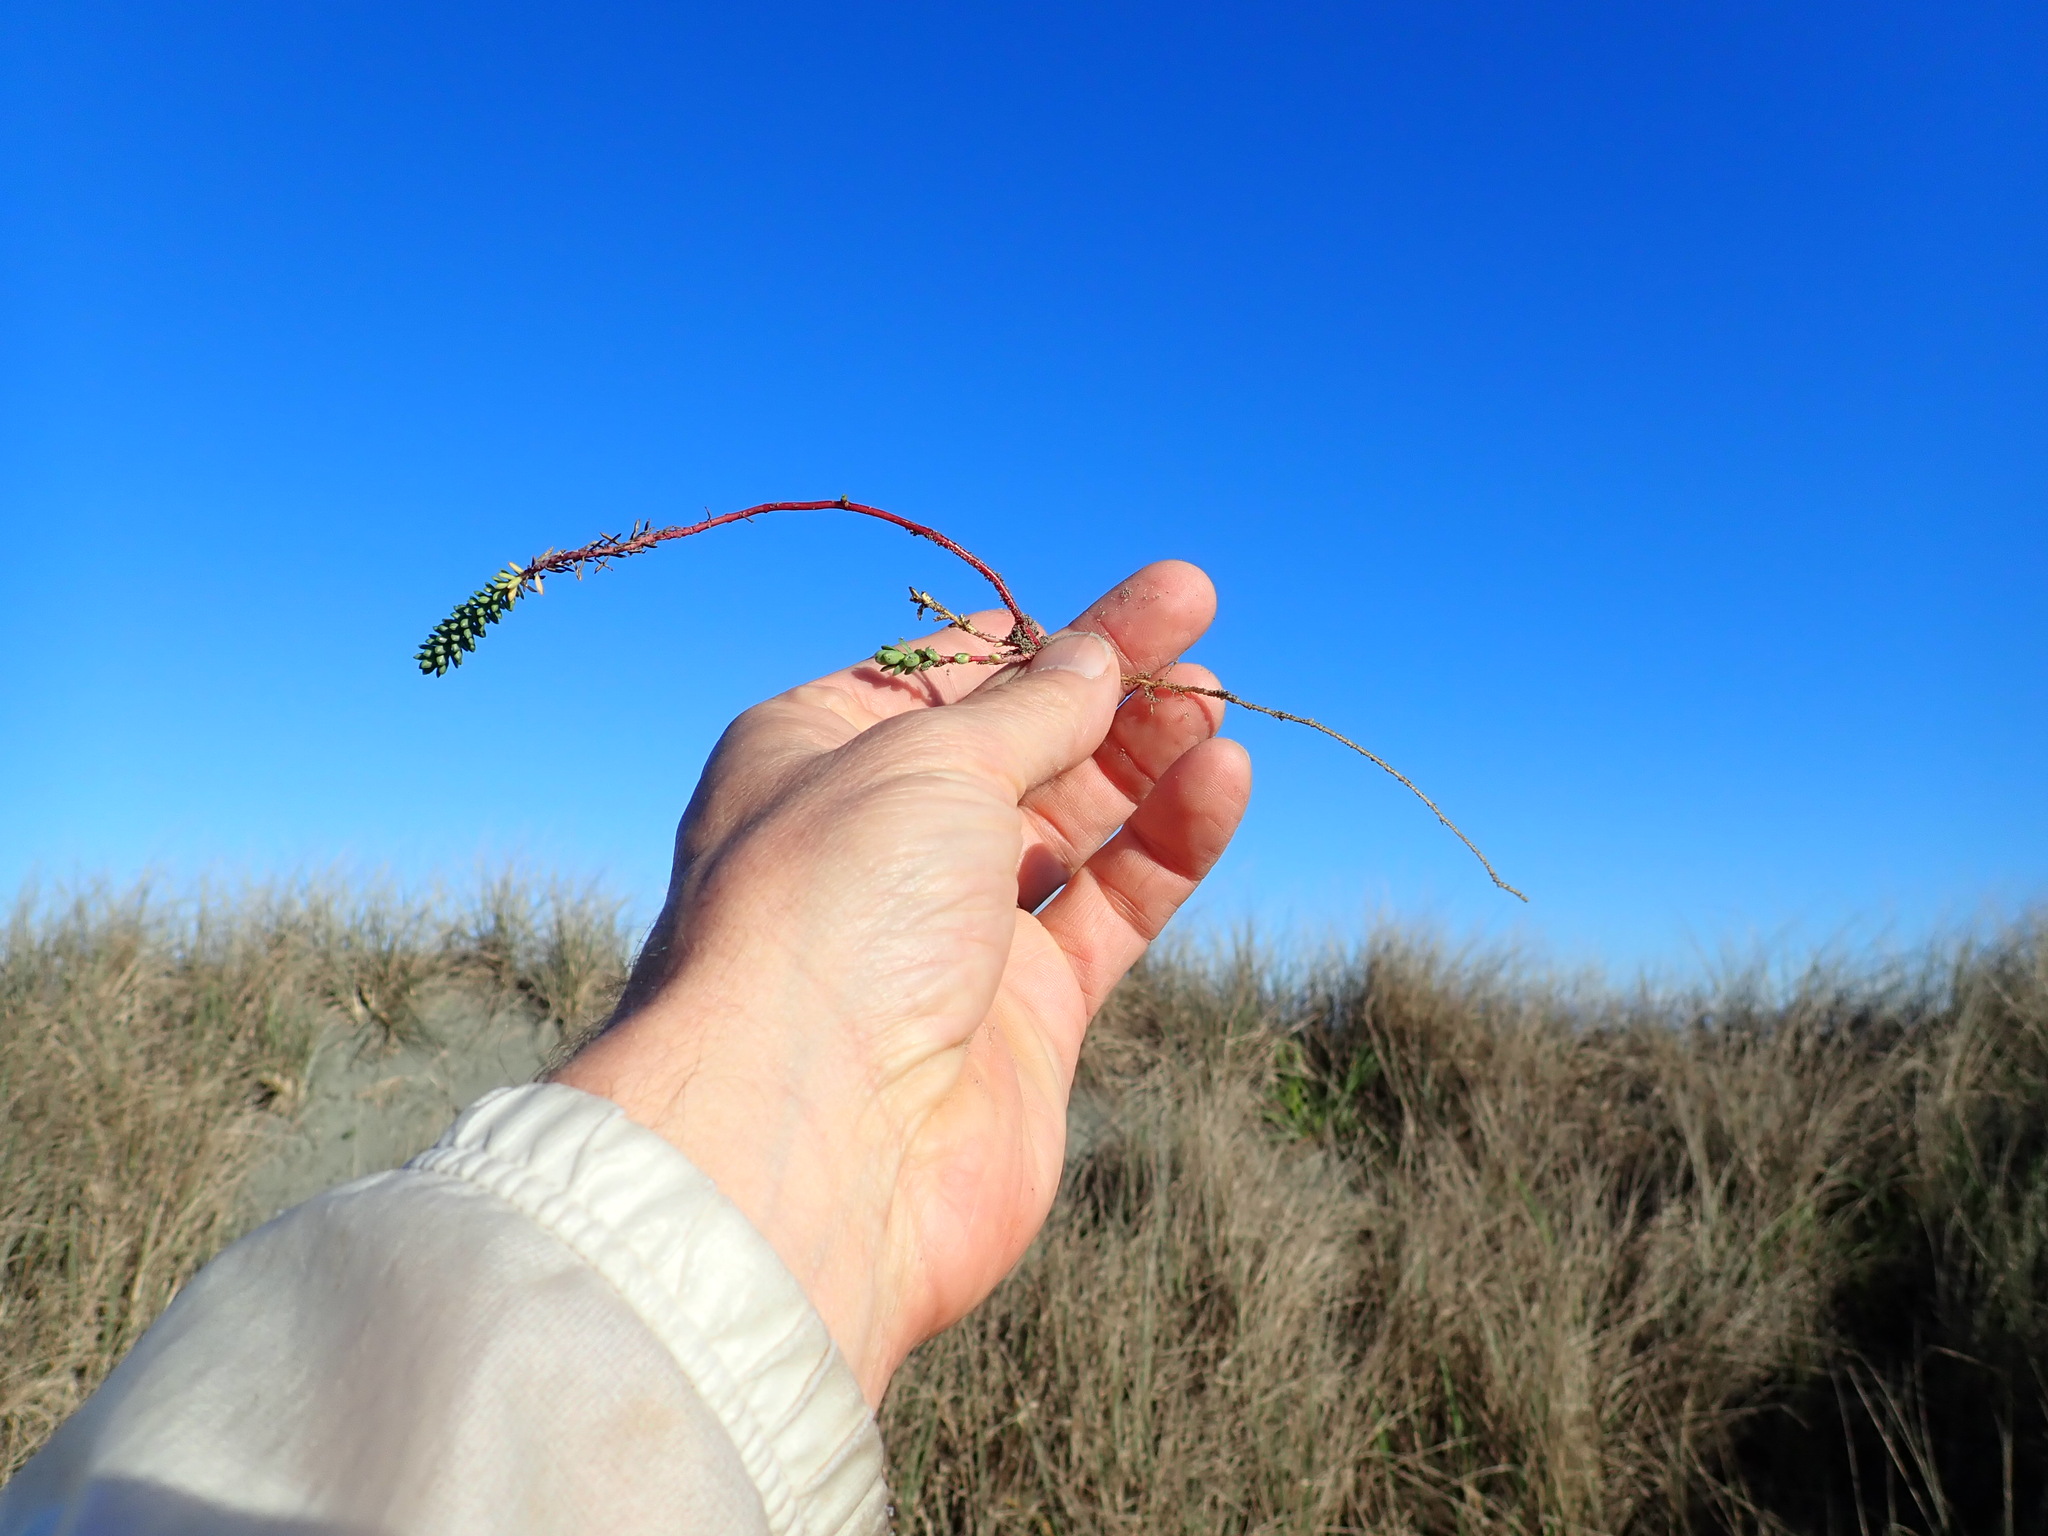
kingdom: Plantae
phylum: Tracheophyta
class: Magnoliopsida
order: Malpighiales
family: Euphorbiaceae
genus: Euphorbia
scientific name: Euphorbia paralias
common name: Sea spurge
